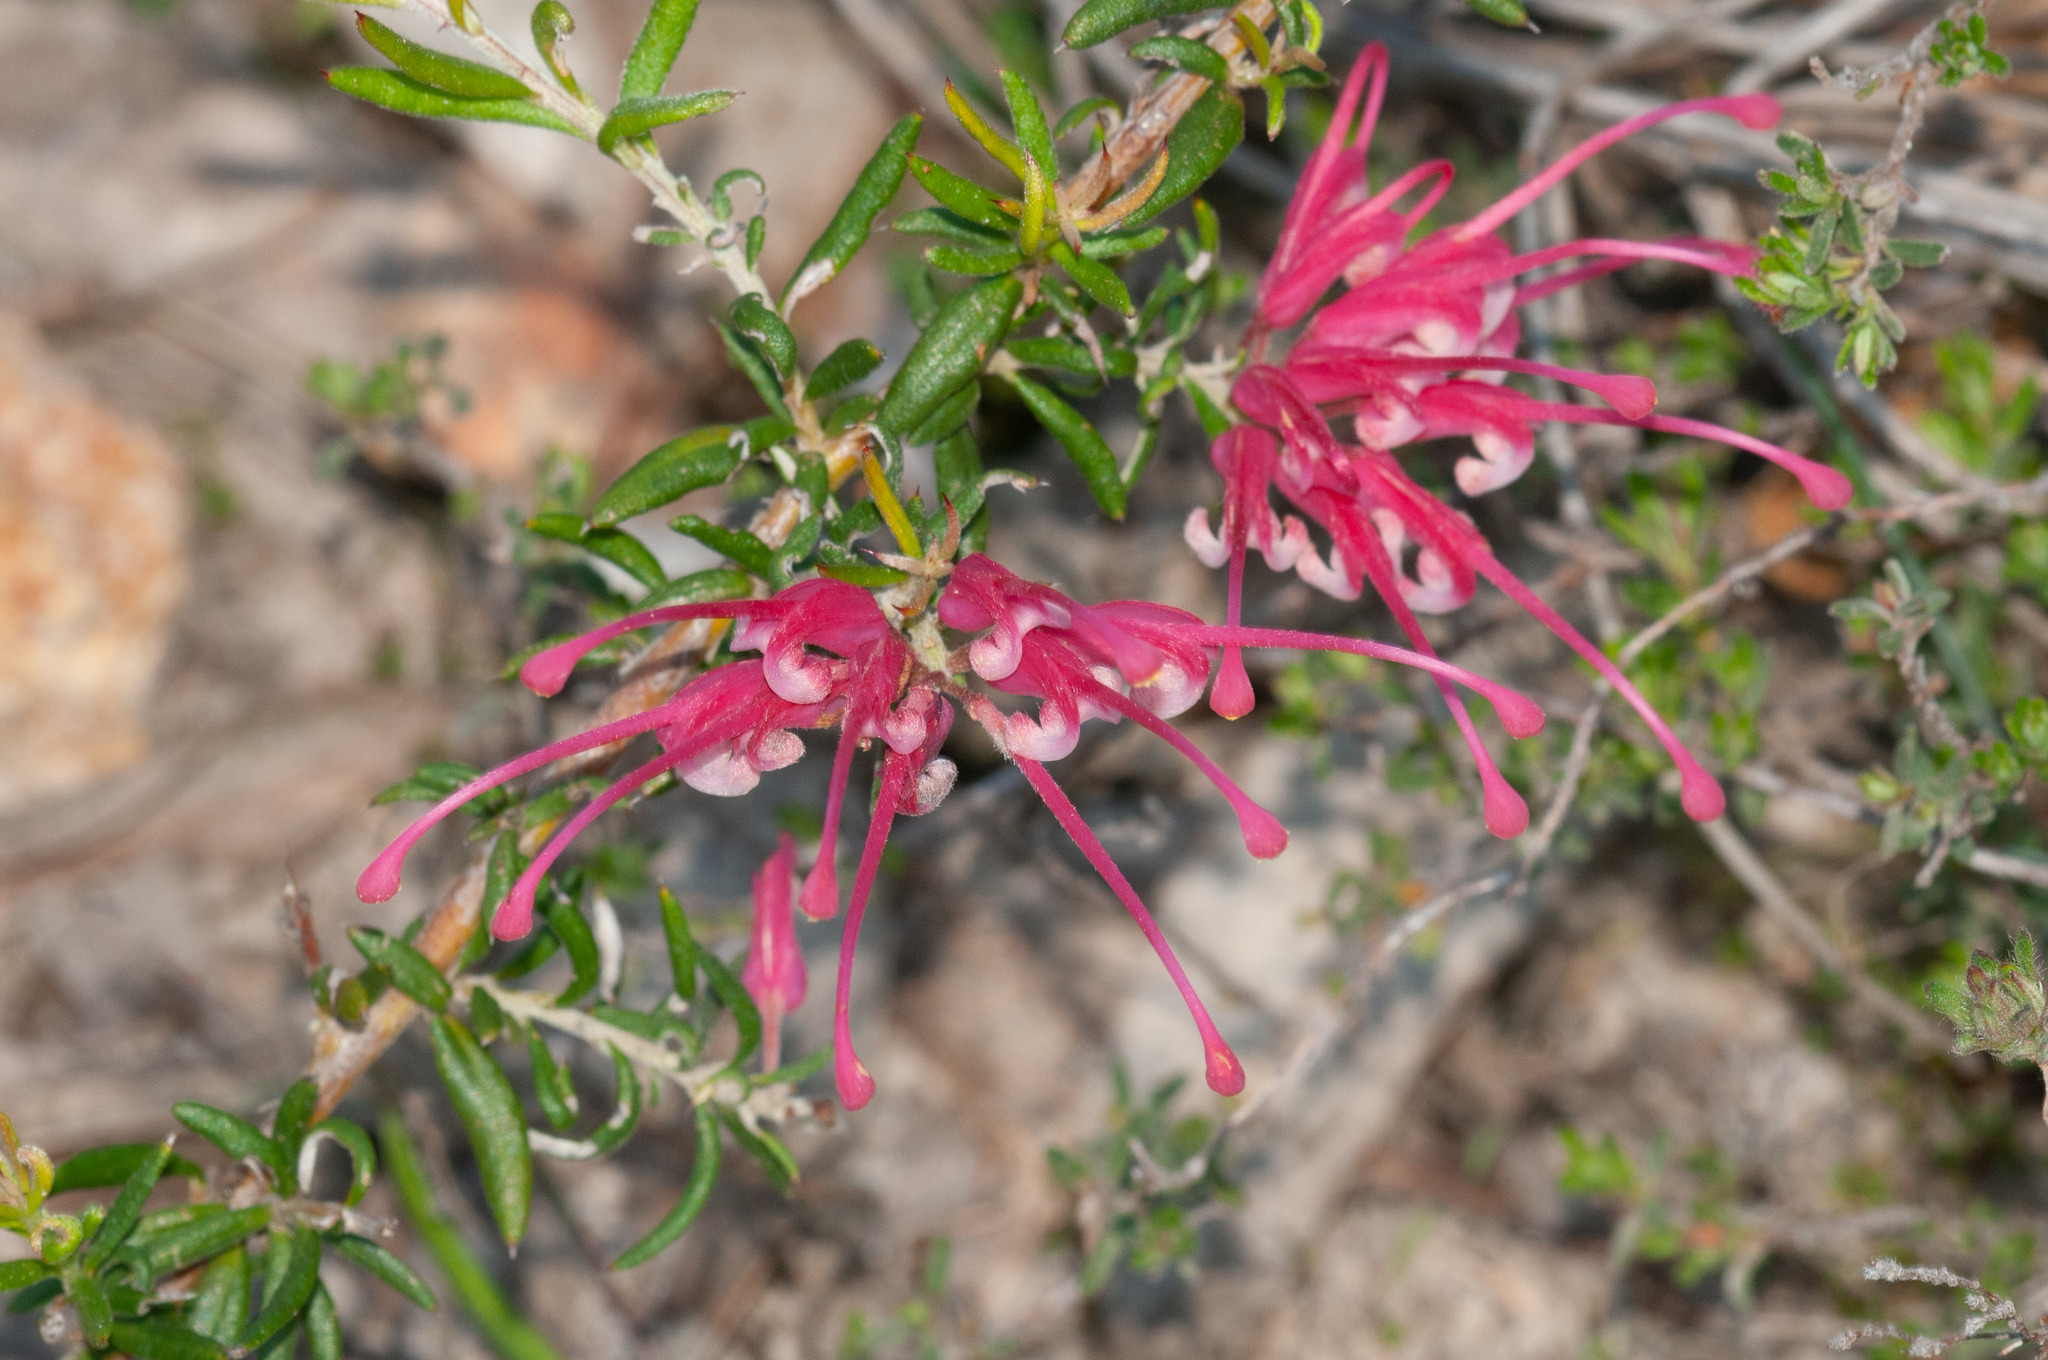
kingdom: Plantae
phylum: Tracheophyta
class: Magnoliopsida
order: Proteales
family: Proteaceae
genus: Grevillea
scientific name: Grevillea lavandulacea
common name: Lavender grevillea
